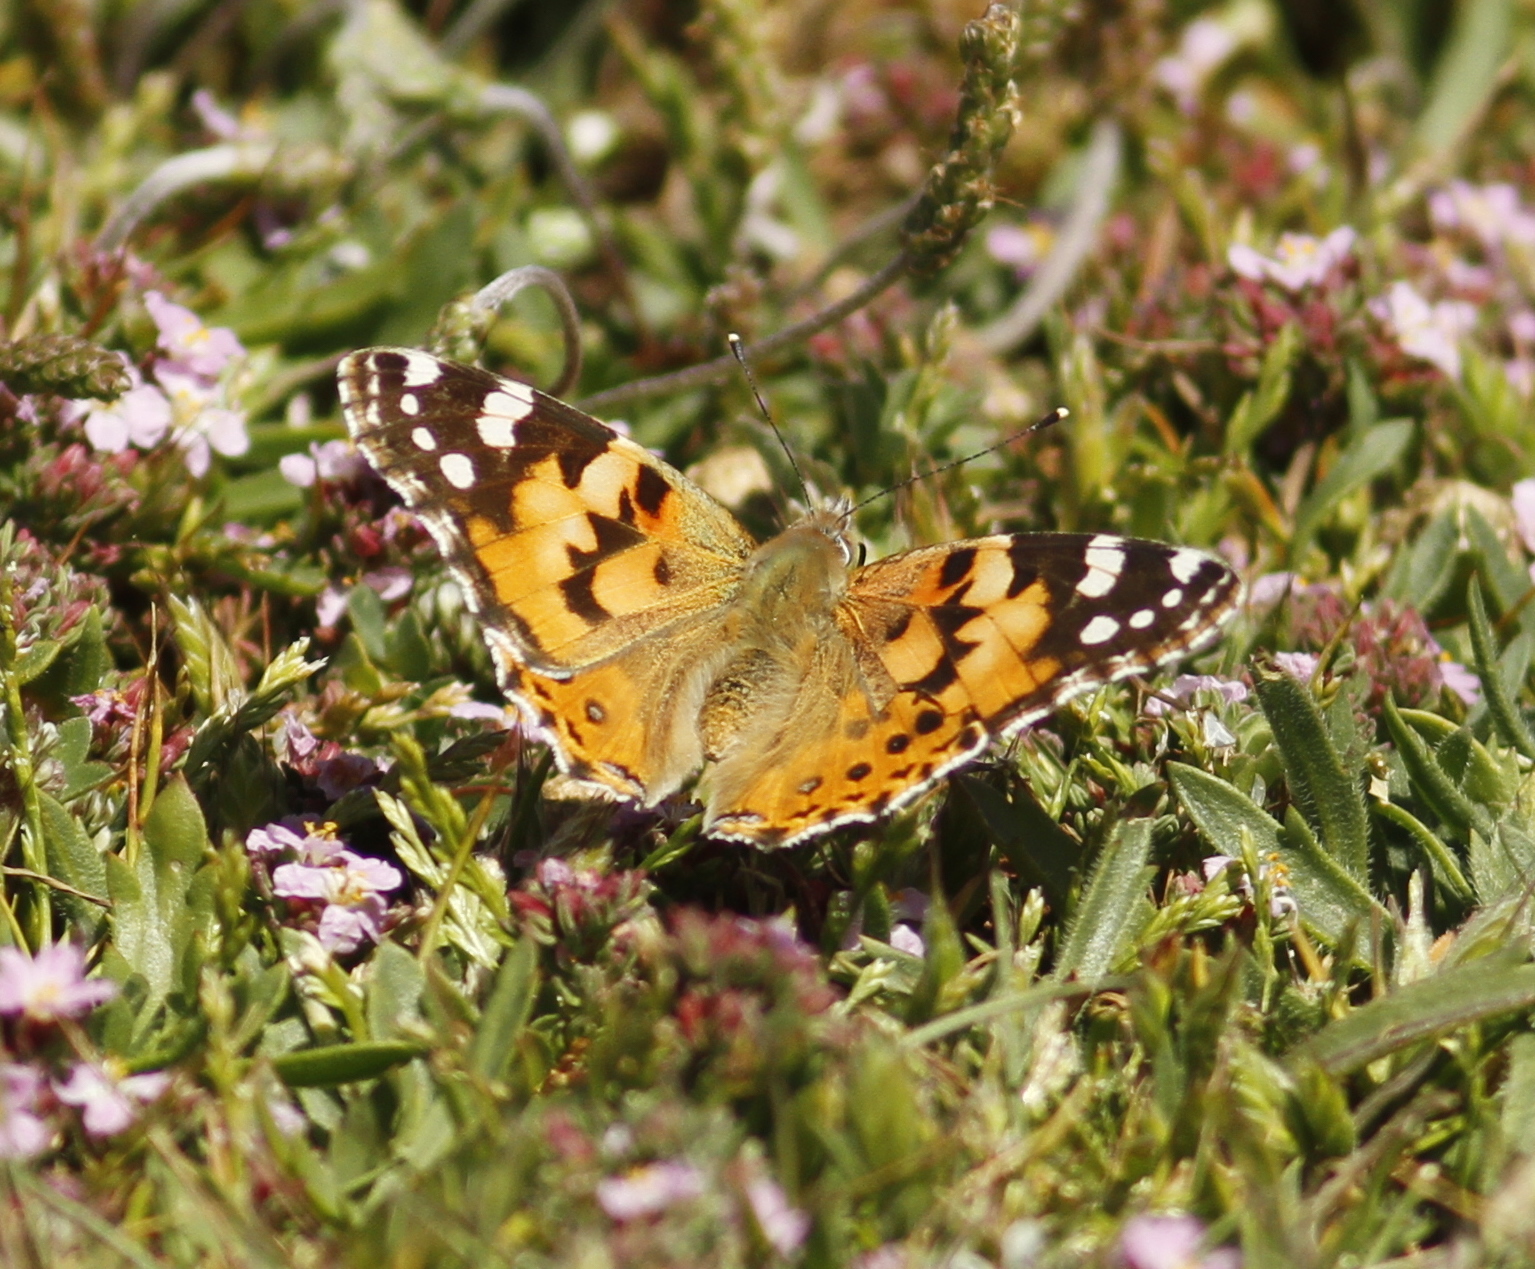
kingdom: Animalia
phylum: Arthropoda
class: Insecta
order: Lepidoptera
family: Nymphalidae
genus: Vanessa
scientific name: Vanessa cardui
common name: Painted lady
